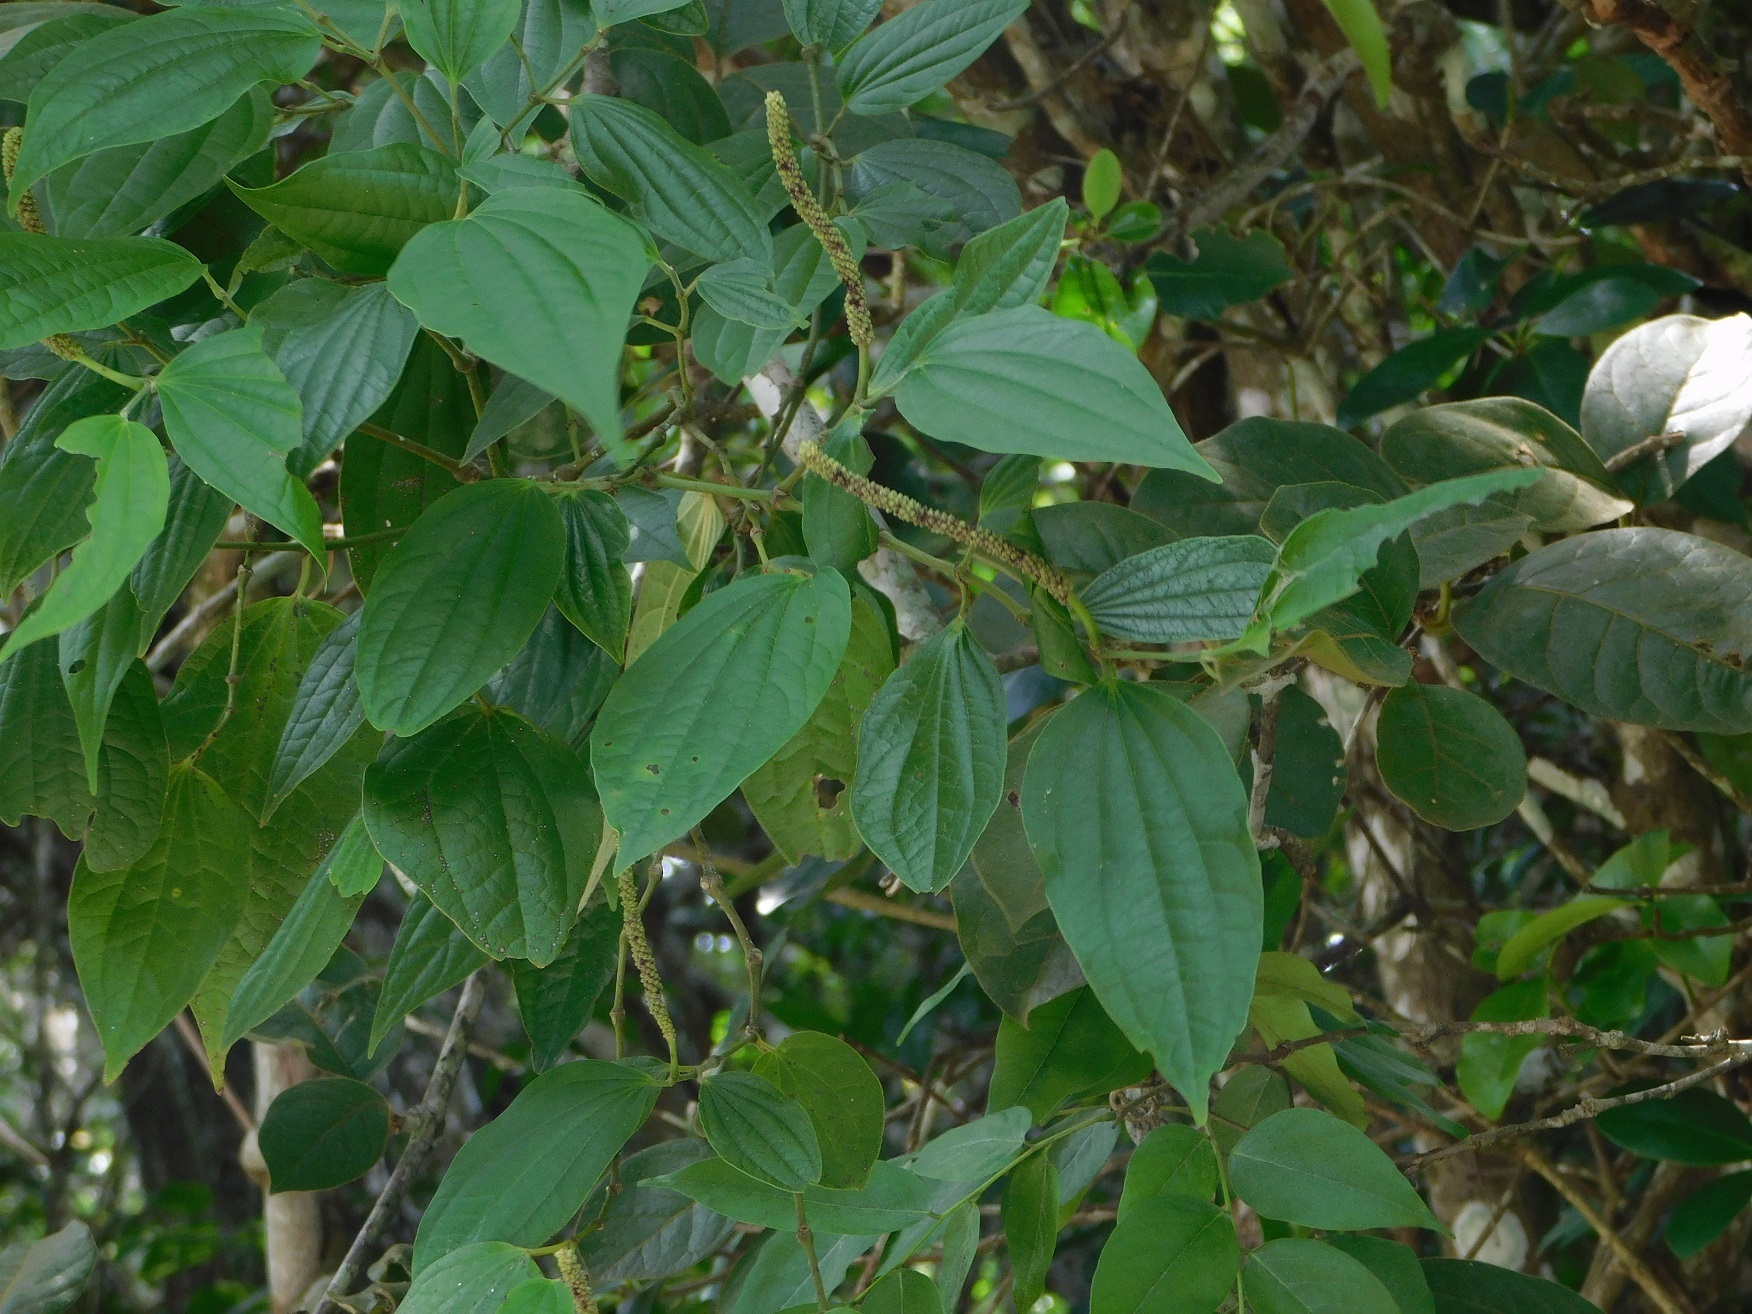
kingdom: Plantae
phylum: Tracheophyta
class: Magnoliopsida
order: Piperales
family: Piperaceae
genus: Piper
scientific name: Piper amalago
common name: Pepper-elder
